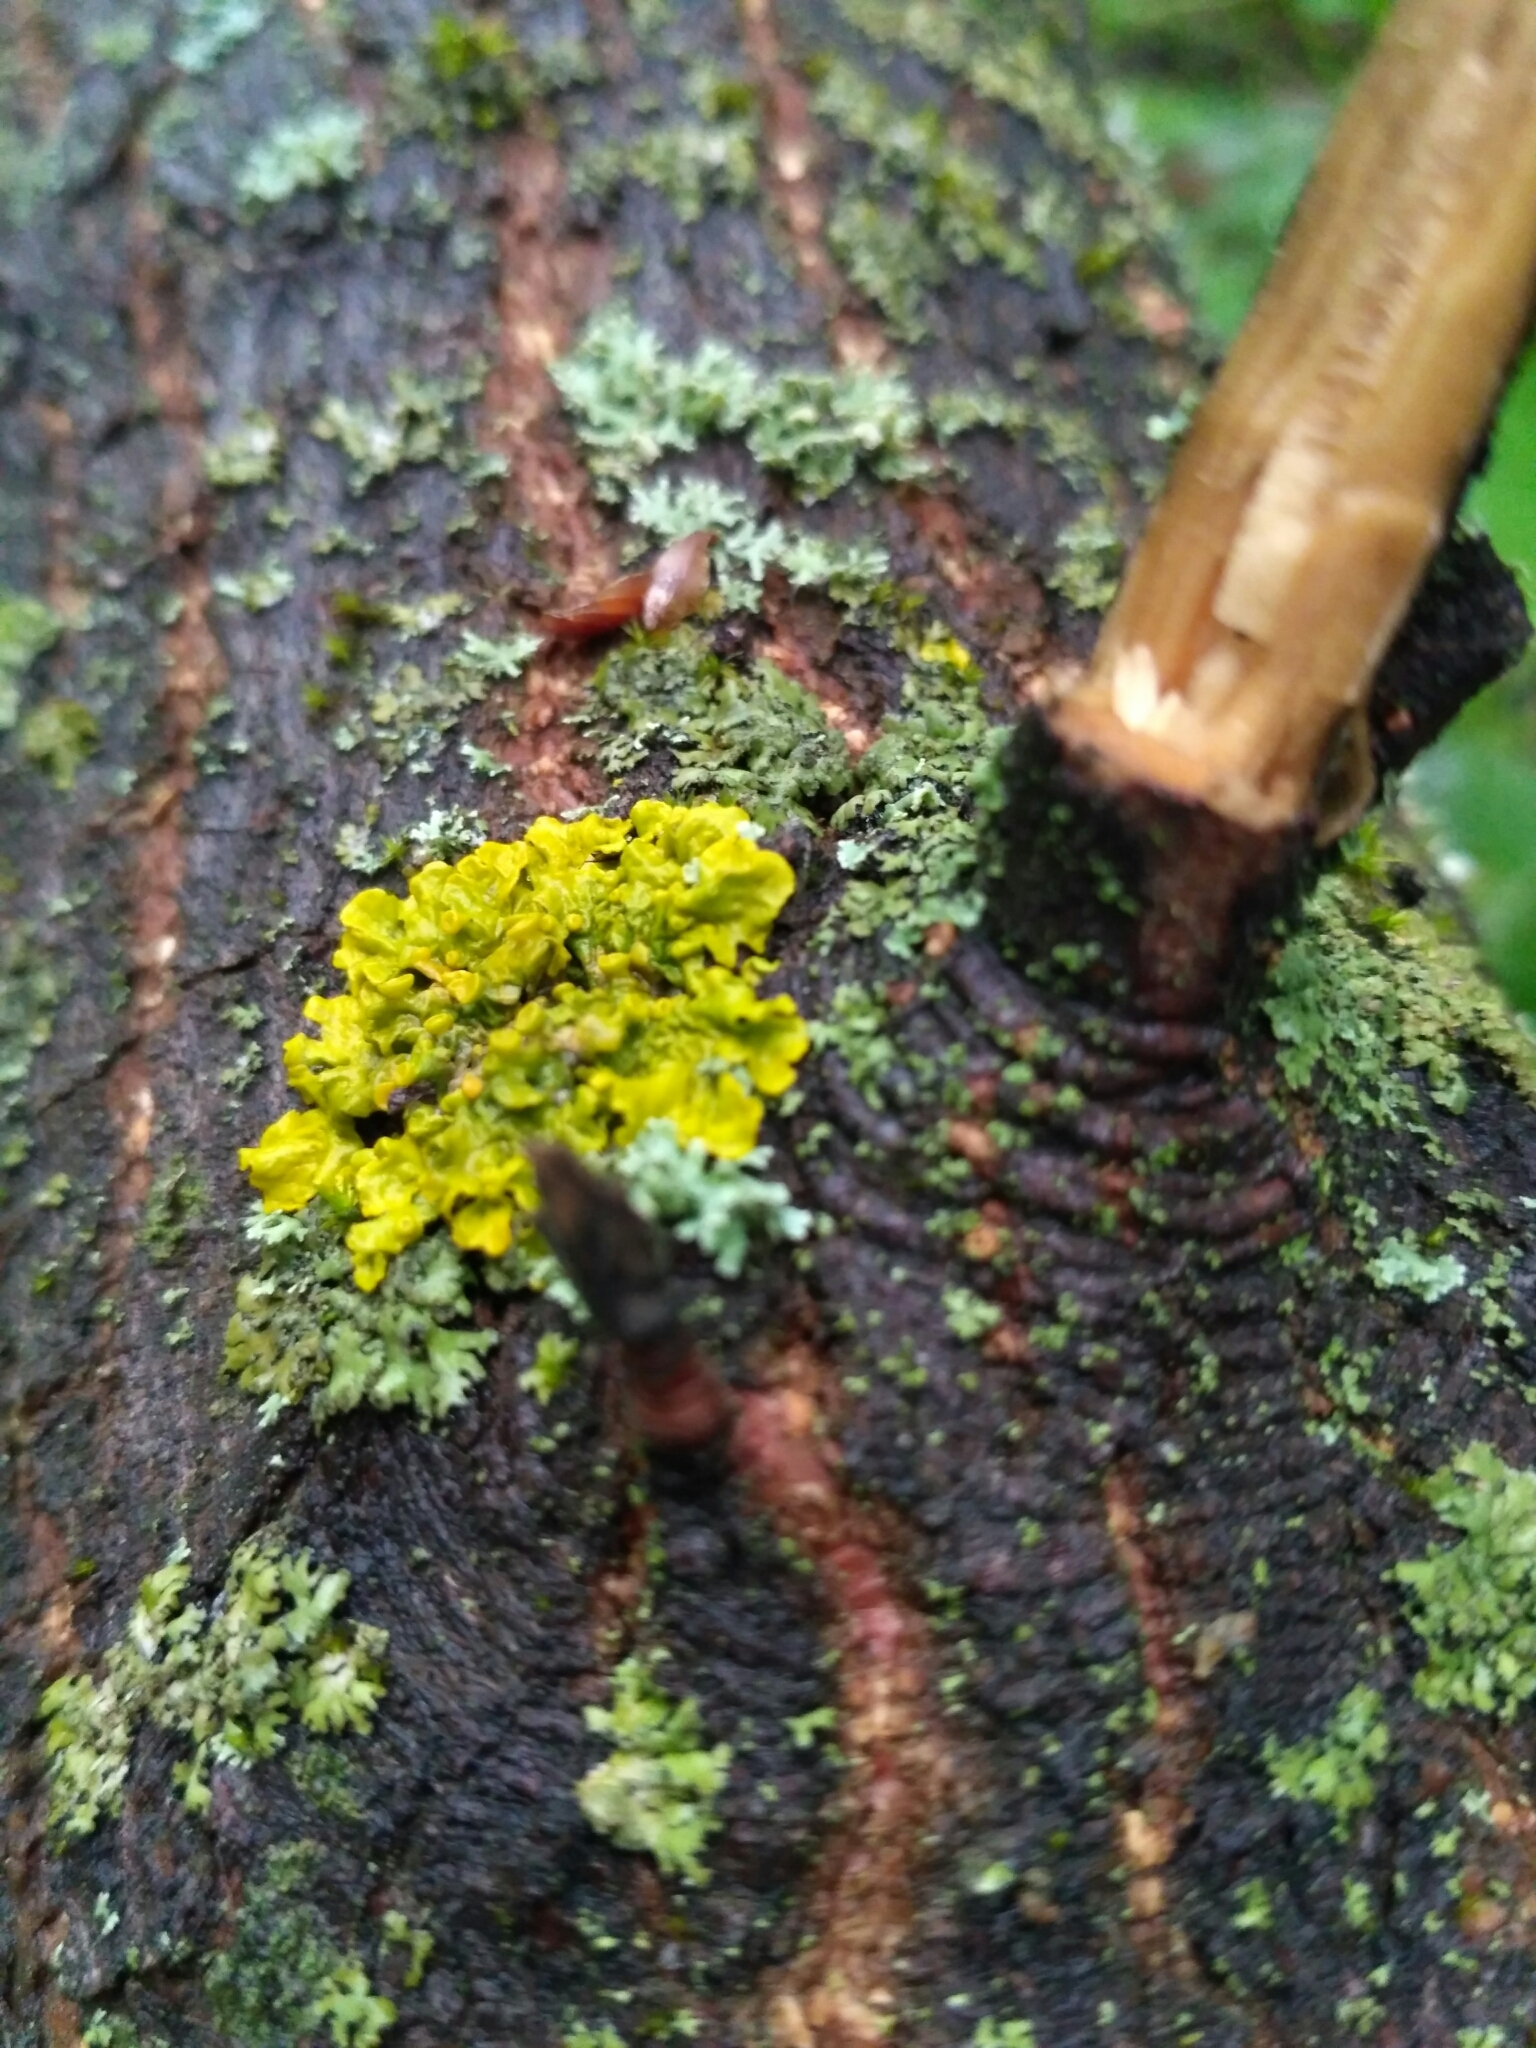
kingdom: Fungi
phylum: Ascomycota
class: Lecanoromycetes
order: Teloschistales
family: Teloschistaceae
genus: Xanthoria
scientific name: Xanthoria parietina
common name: Common orange lichen
